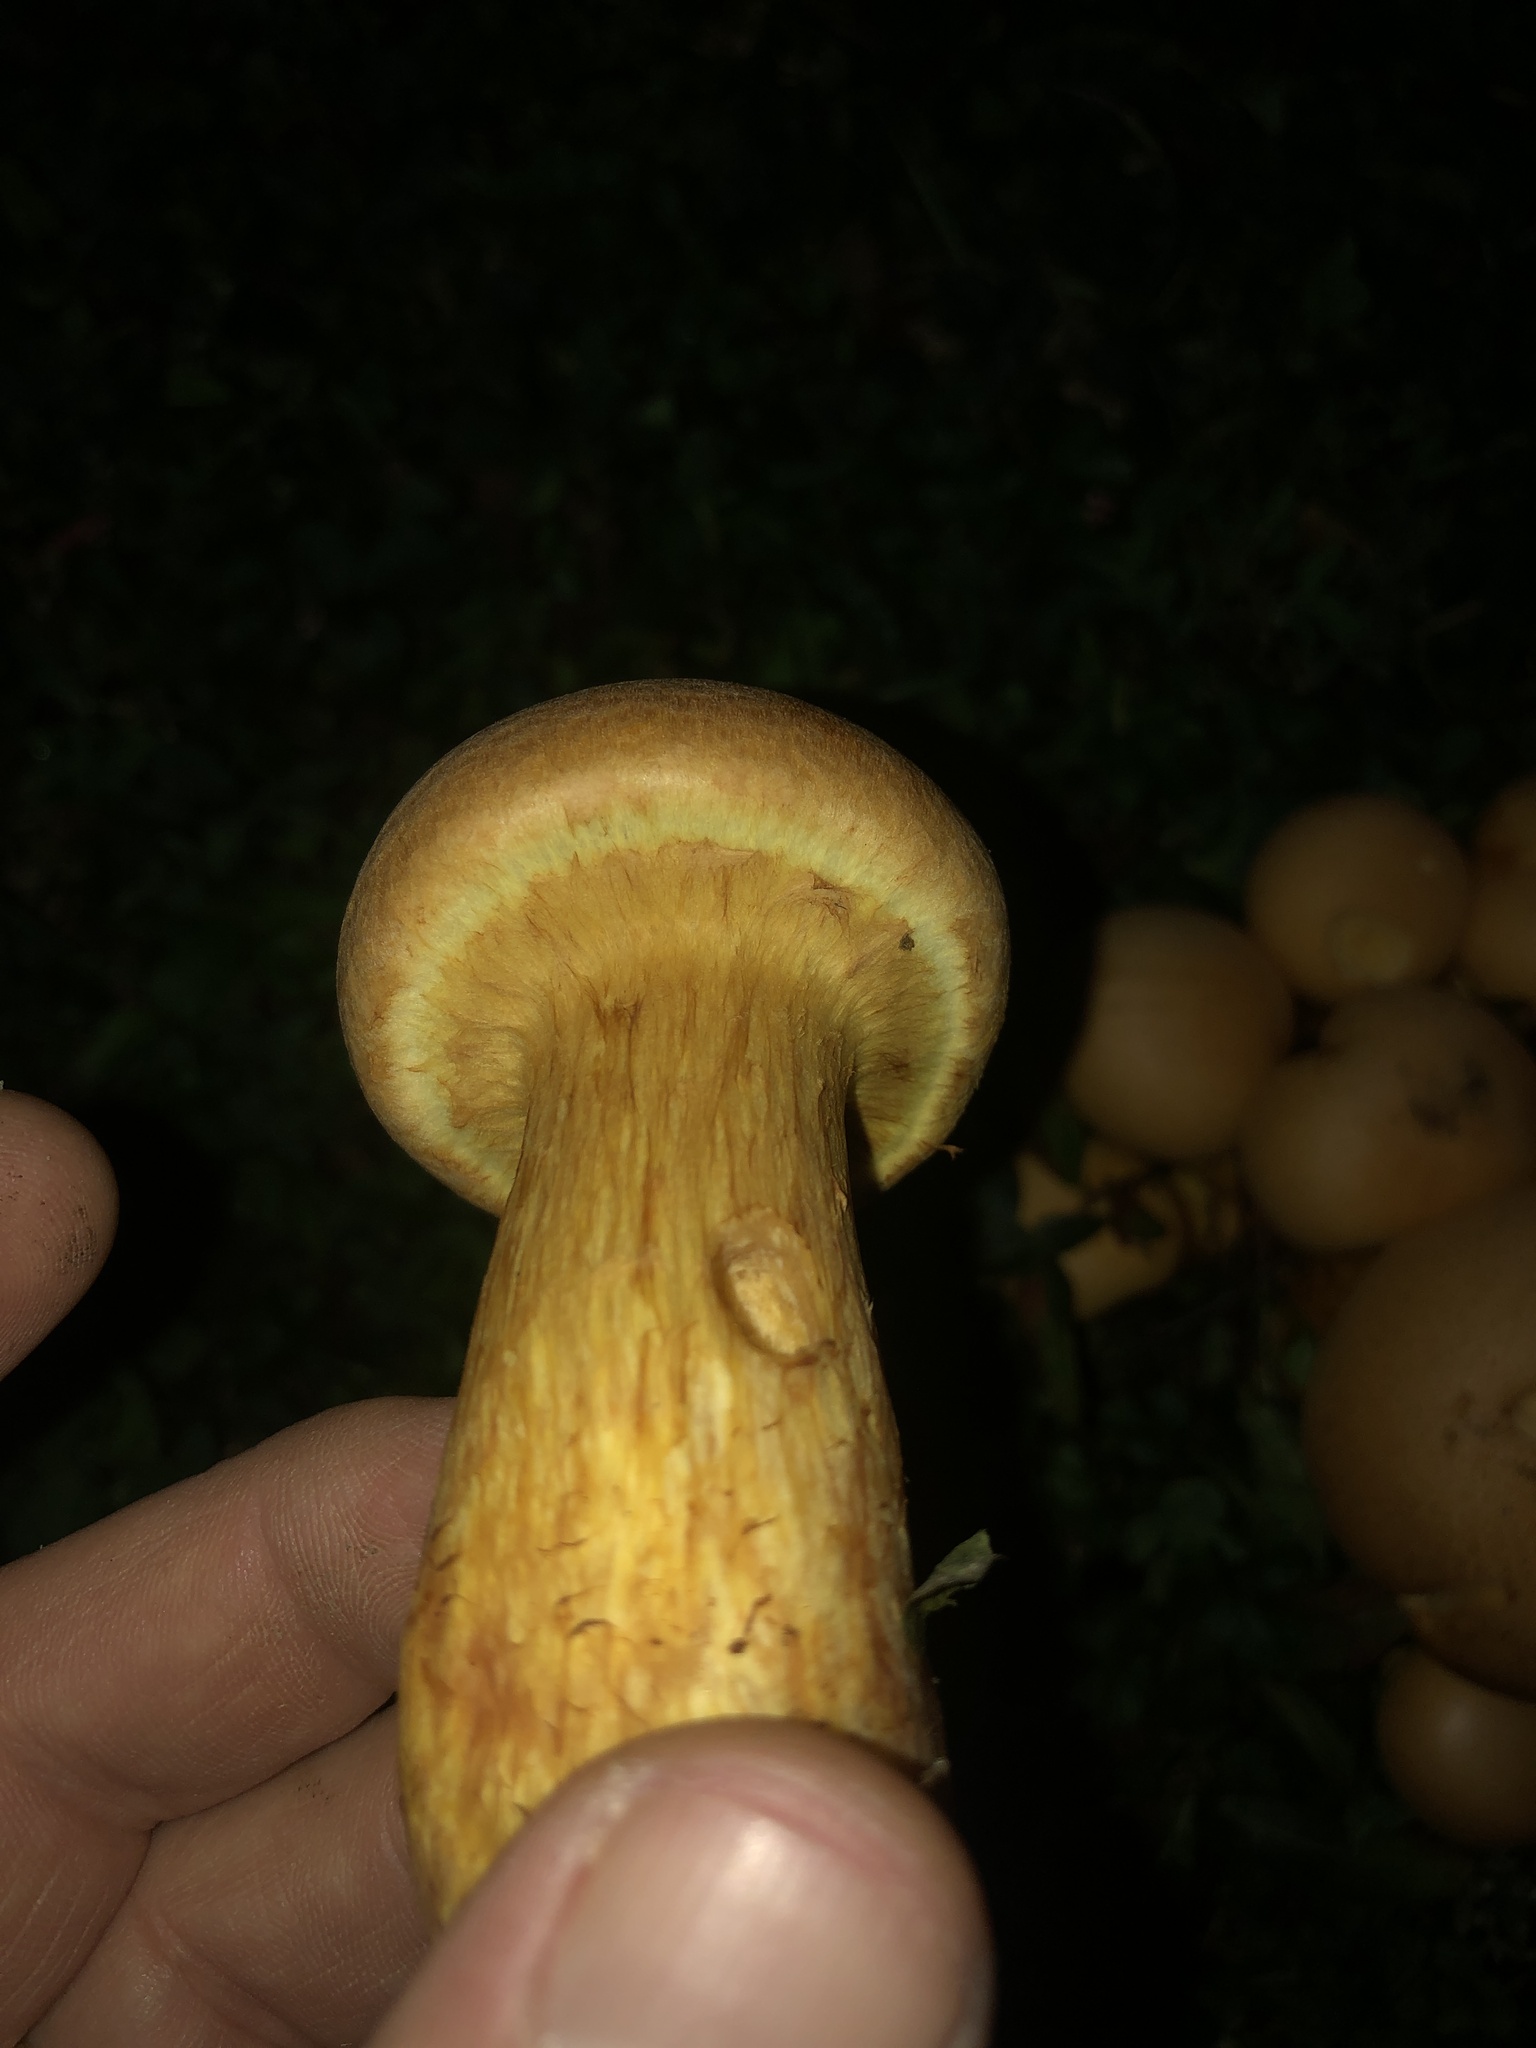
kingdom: Fungi
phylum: Basidiomycota
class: Agaricomycetes
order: Agaricales
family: Hymenogastraceae
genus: Gymnopilus
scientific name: Gymnopilus subspectabilis
